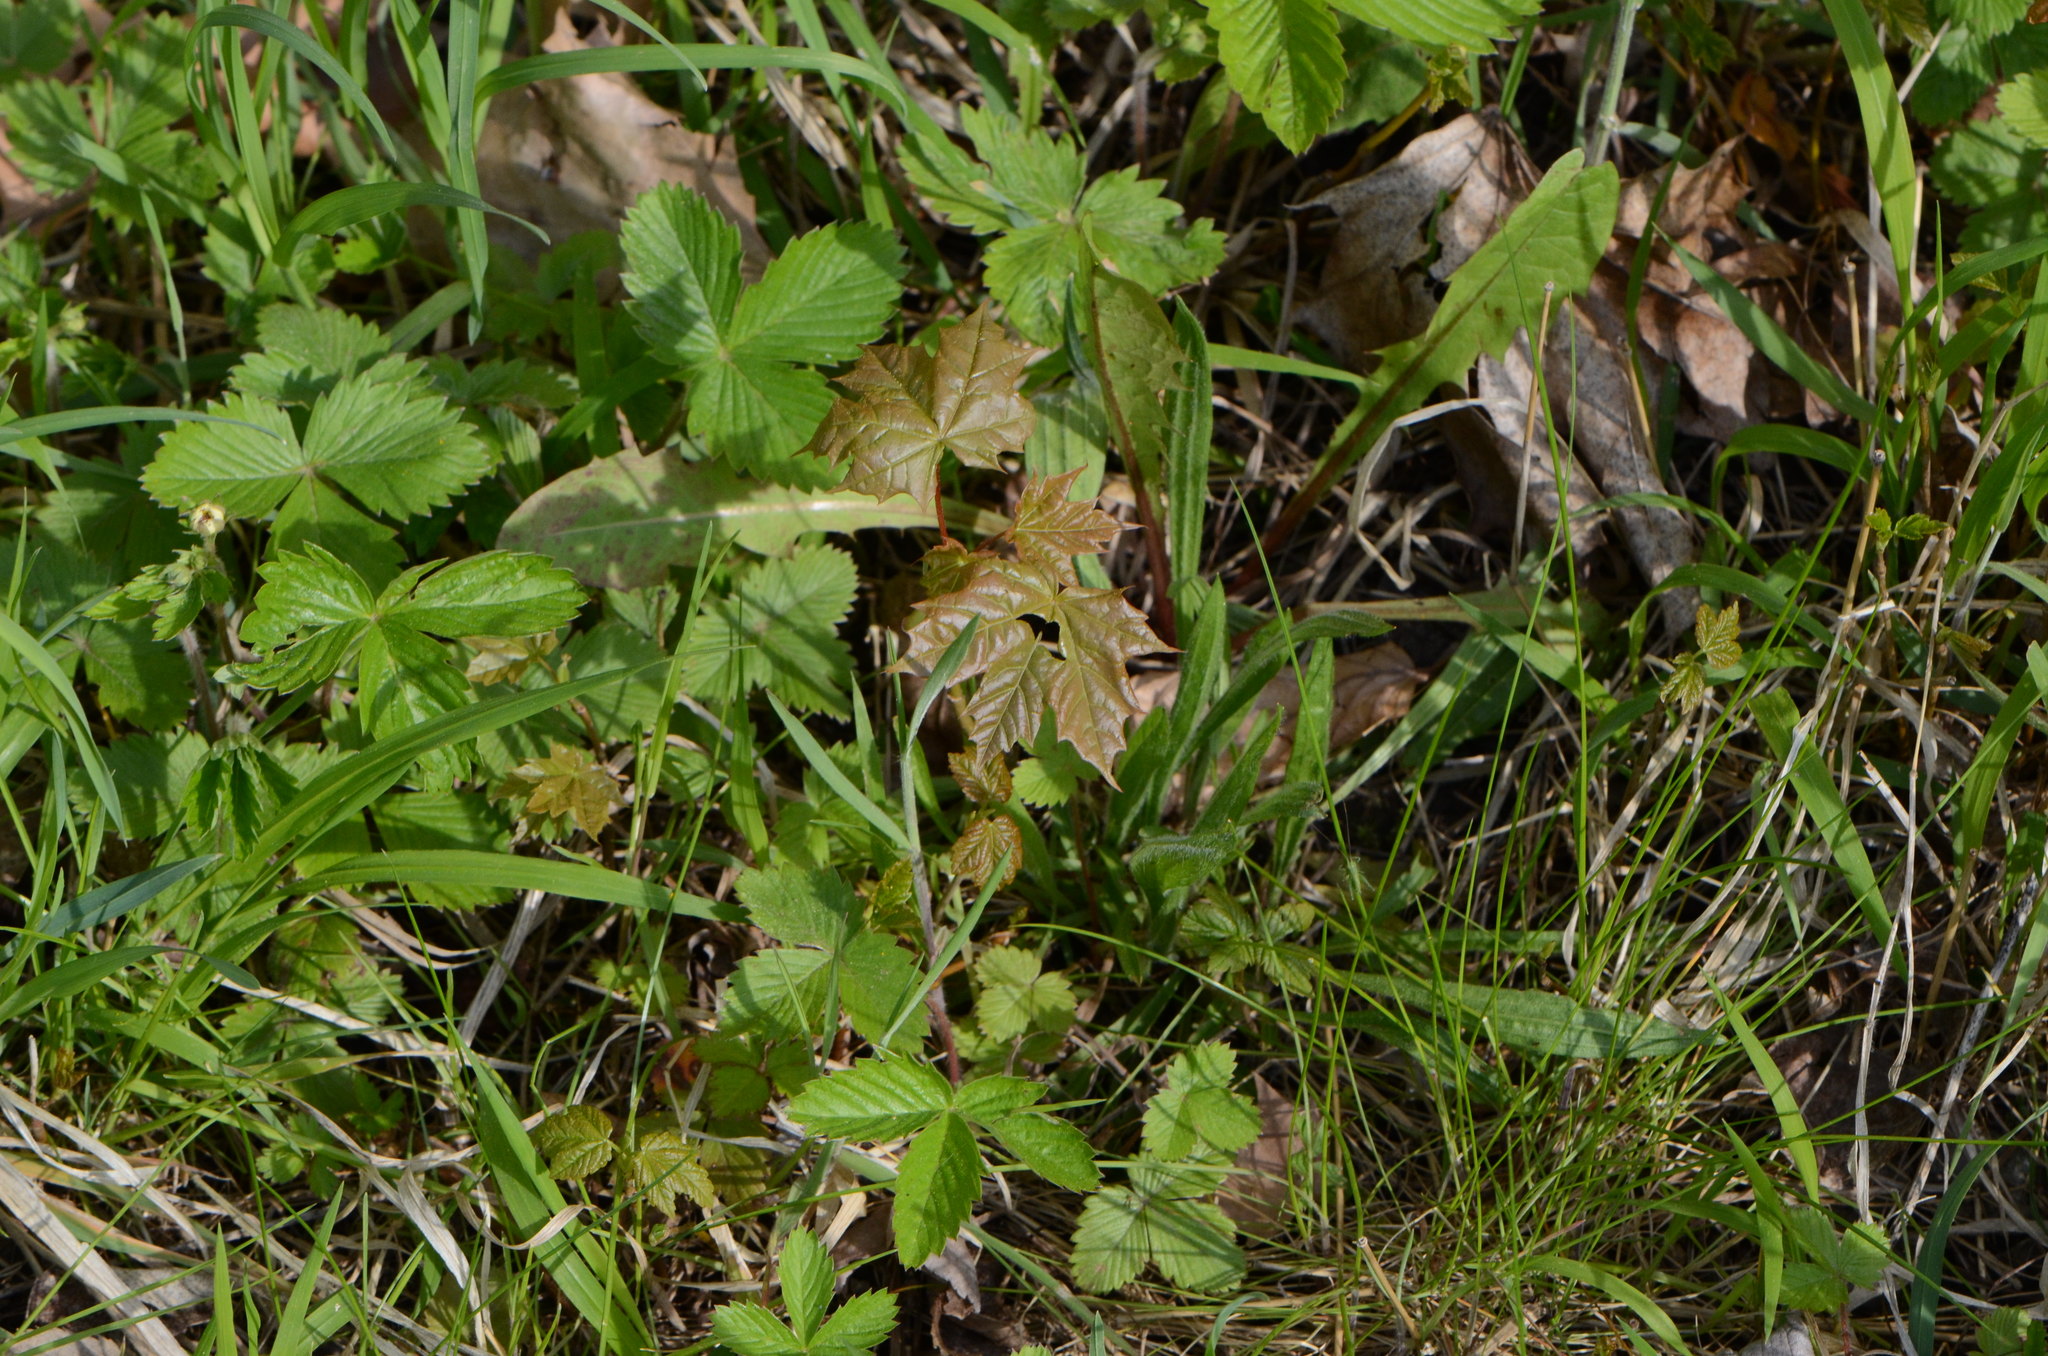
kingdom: Plantae
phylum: Tracheophyta
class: Magnoliopsida
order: Sapindales
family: Sapindaceae
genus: Acer
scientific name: Acer platanoides
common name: Norway maple
